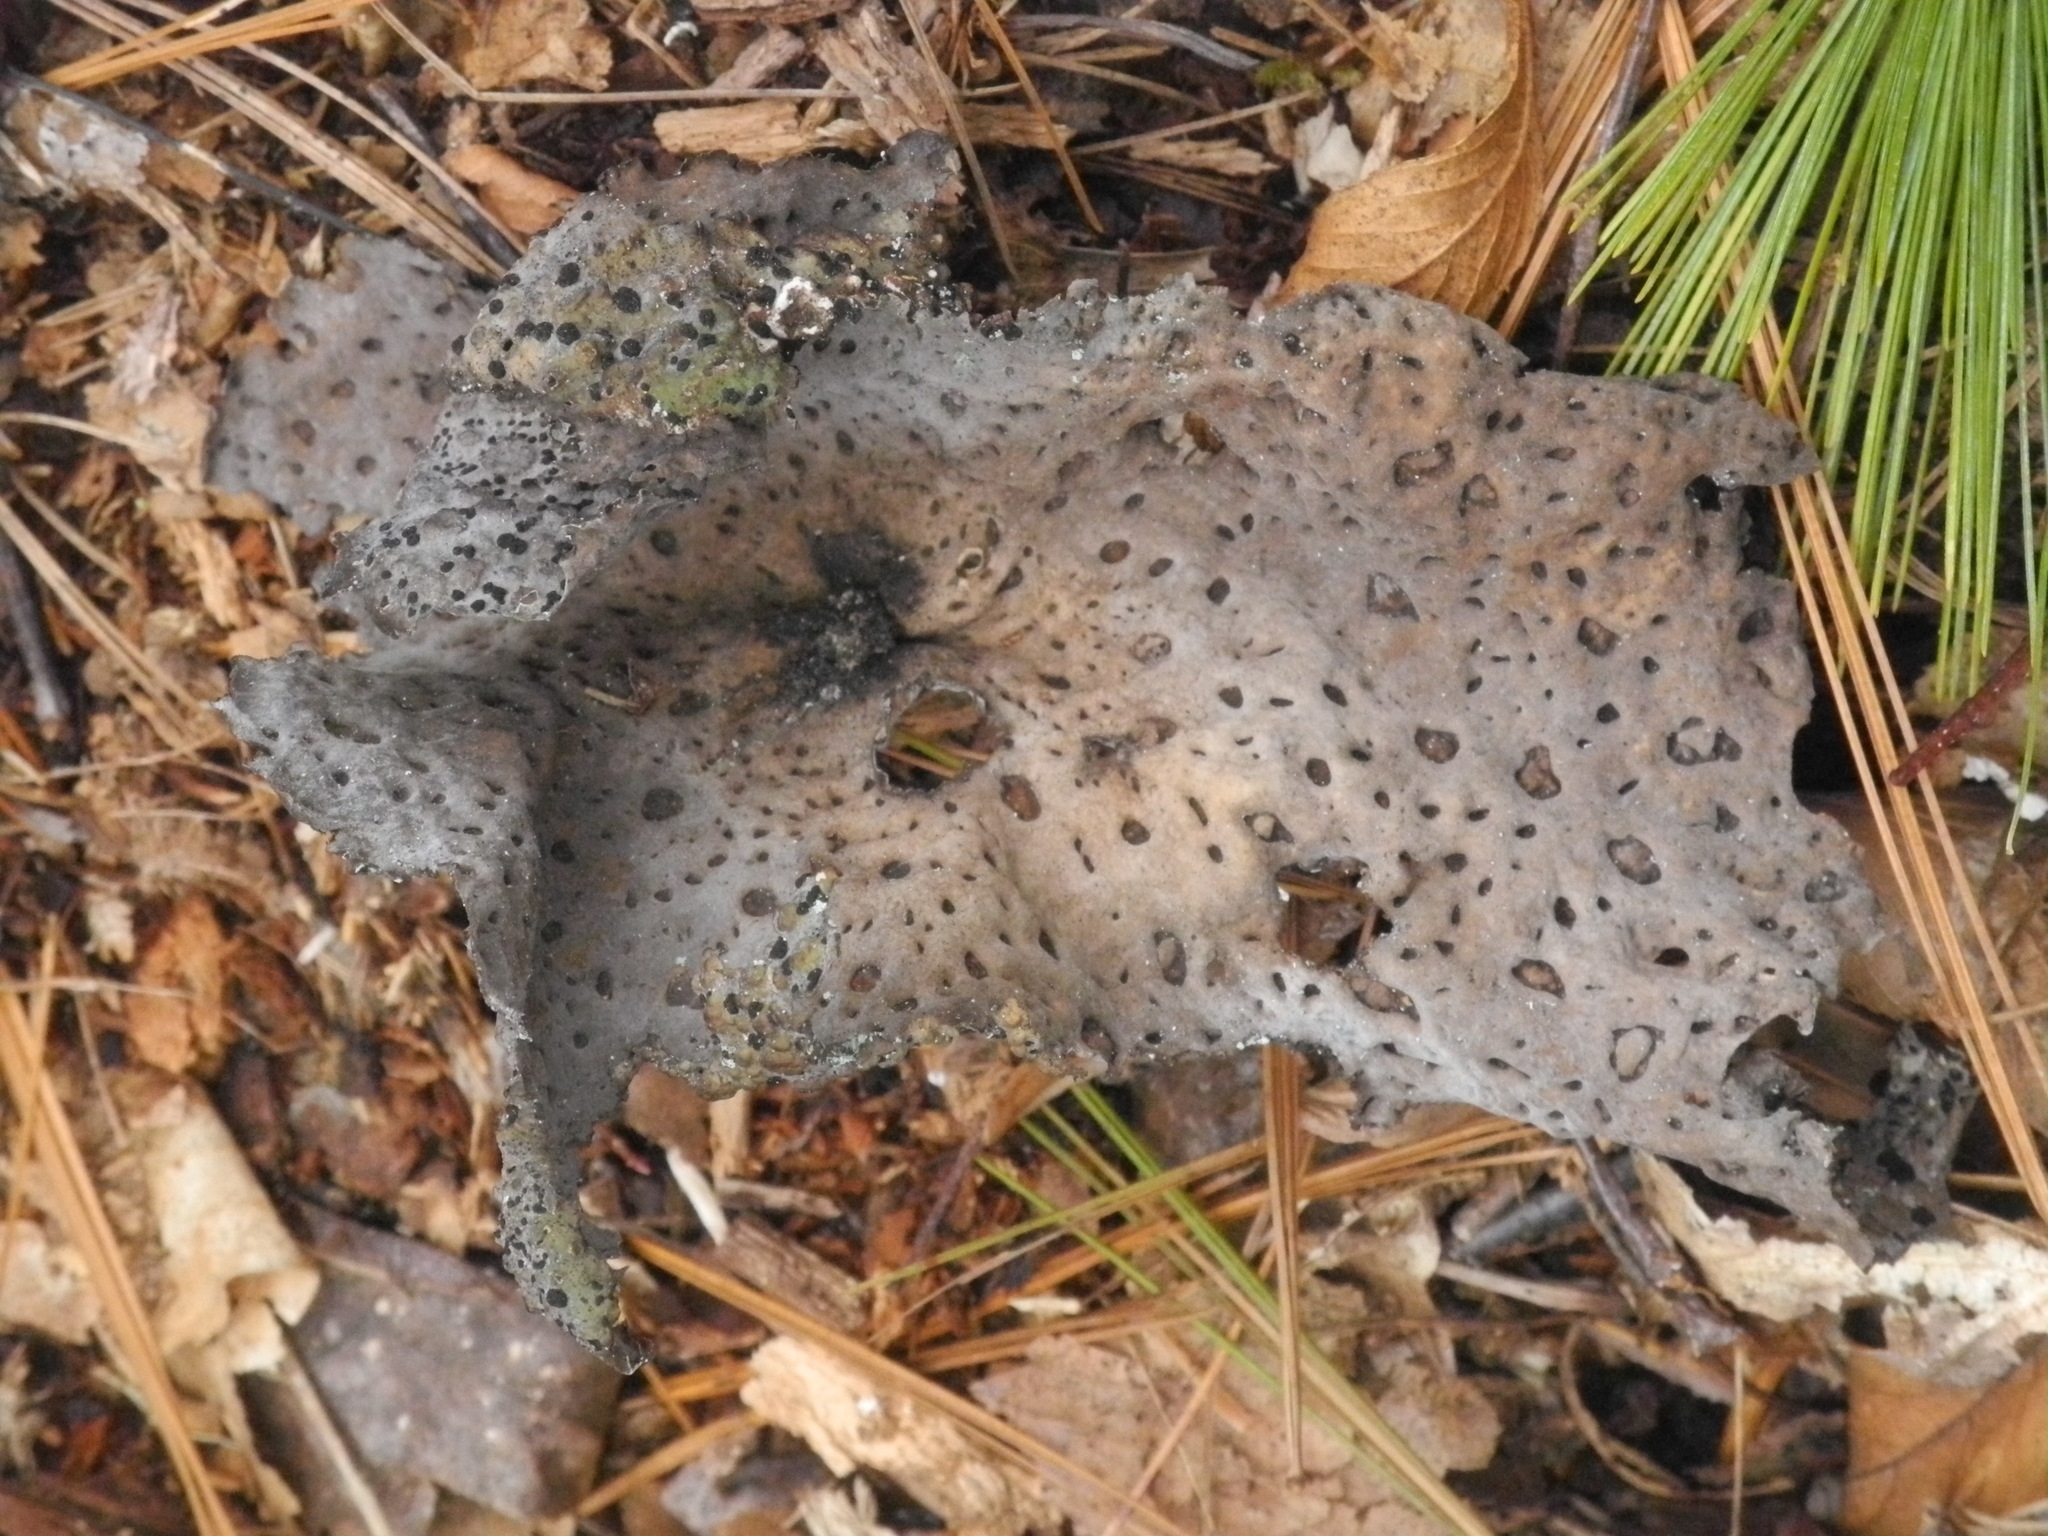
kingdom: Fungi
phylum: Ascomycota
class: Lecanoromycetes
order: Umbilicariales
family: Umbilicariaceae
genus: Lasallia
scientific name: Lasallia papulosa
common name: Common toadskin lichen
